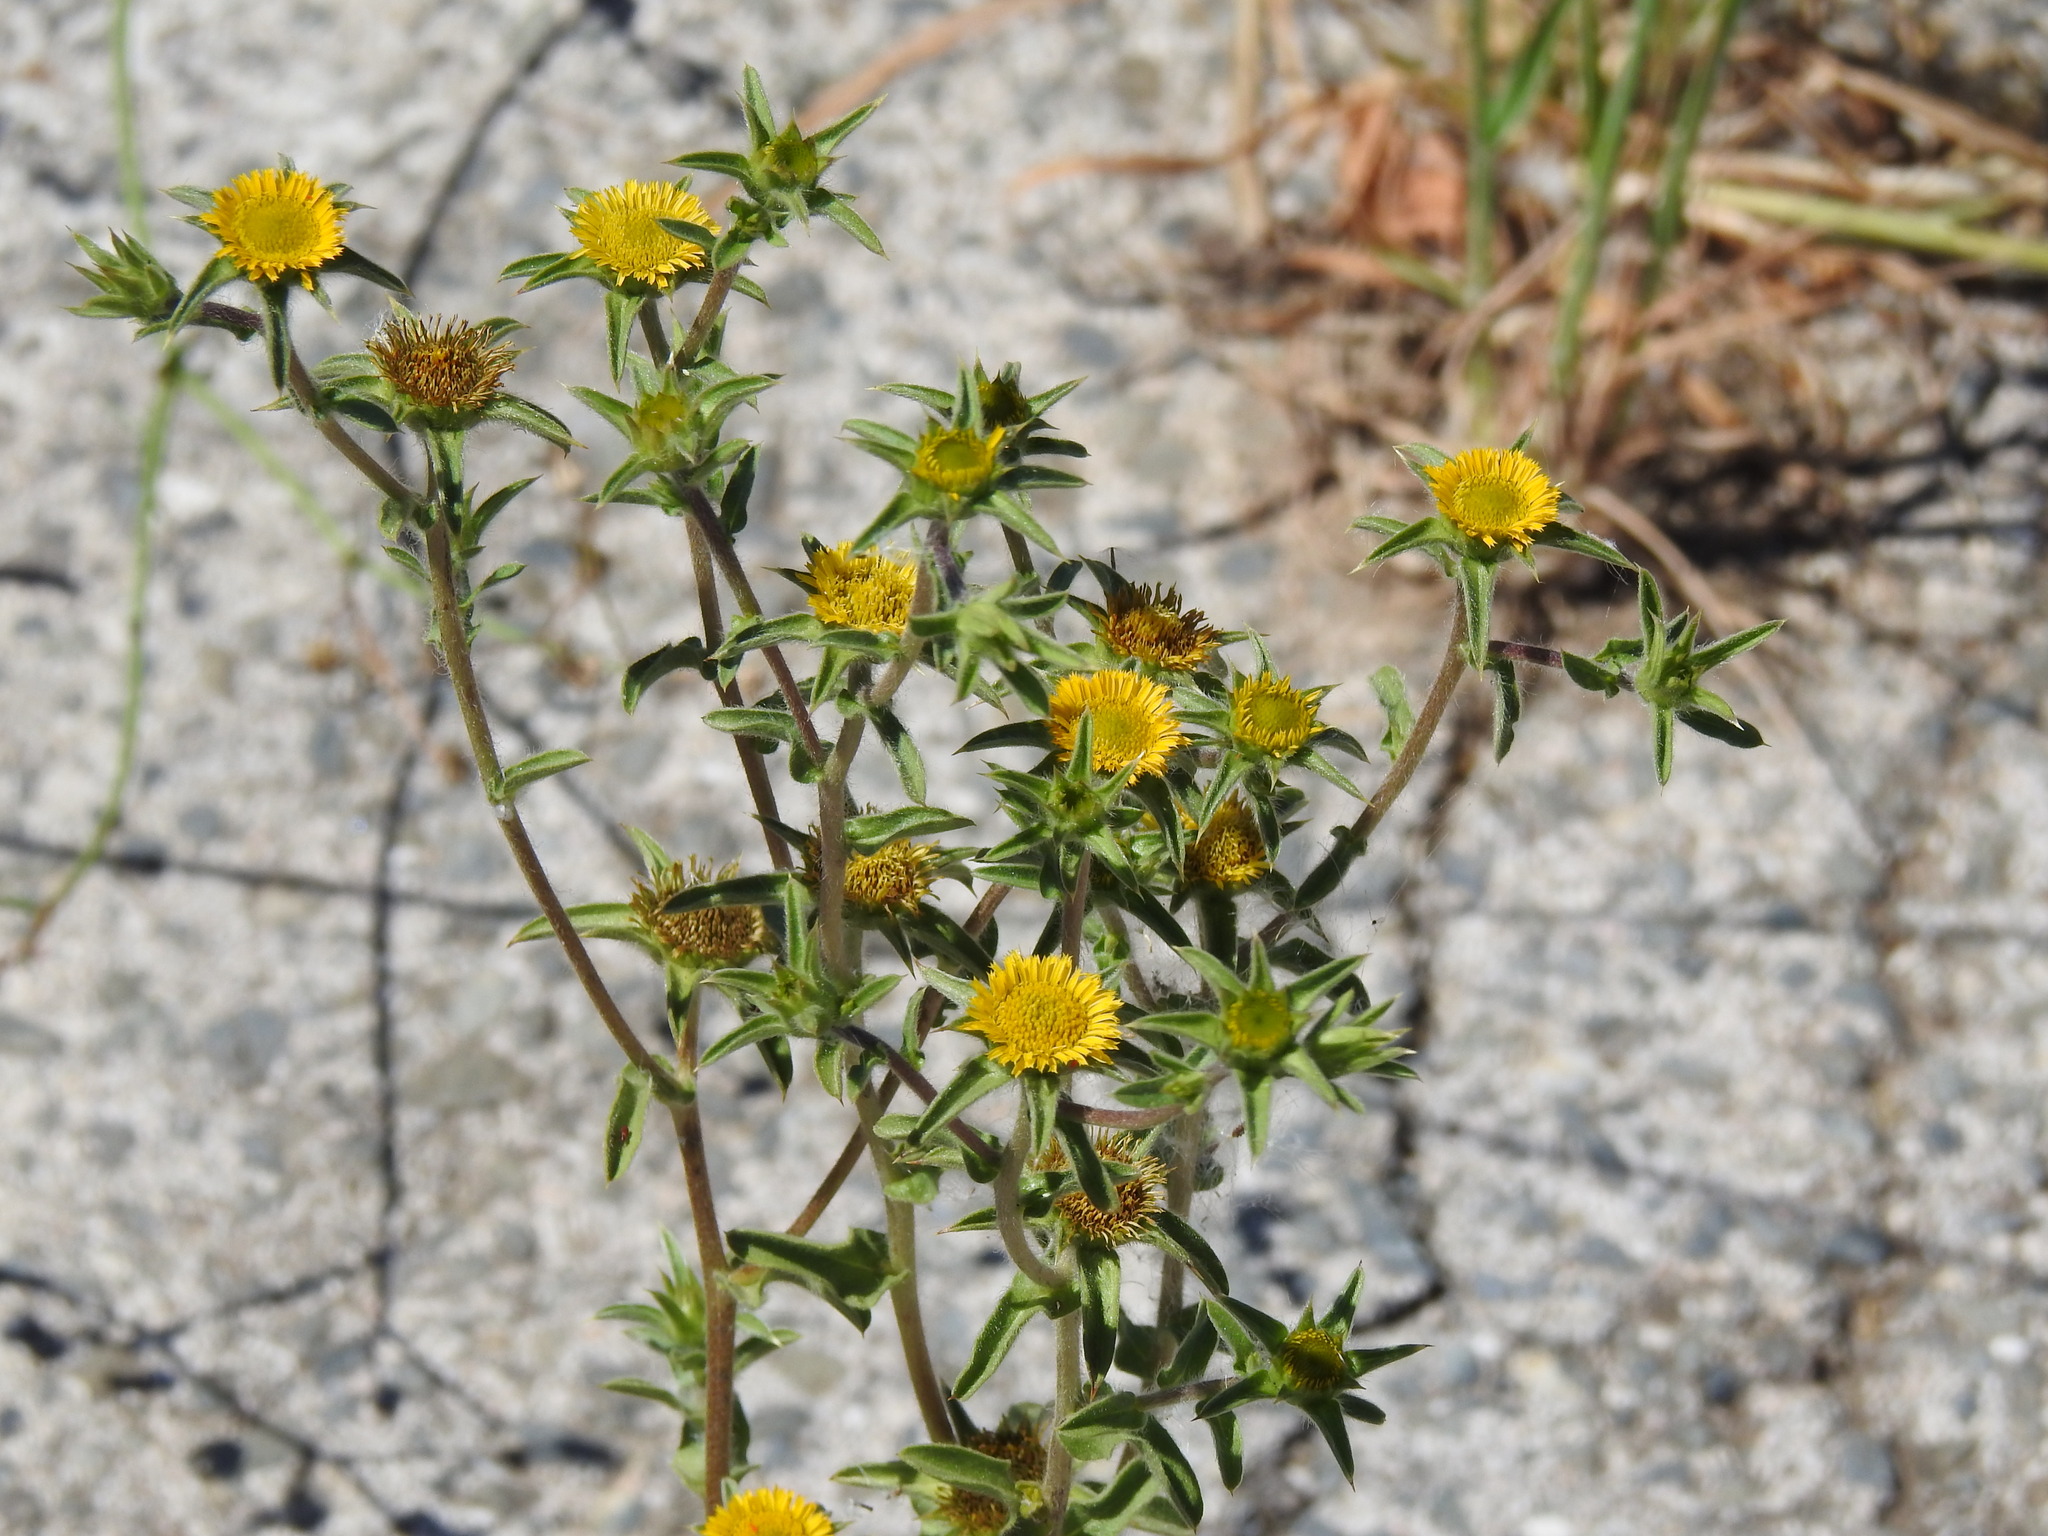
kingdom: Plantae
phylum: Tracheophyta
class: Magnoliopsida
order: Asterales
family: Asteraceae
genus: Pallenis
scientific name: Pallenis spinosa
